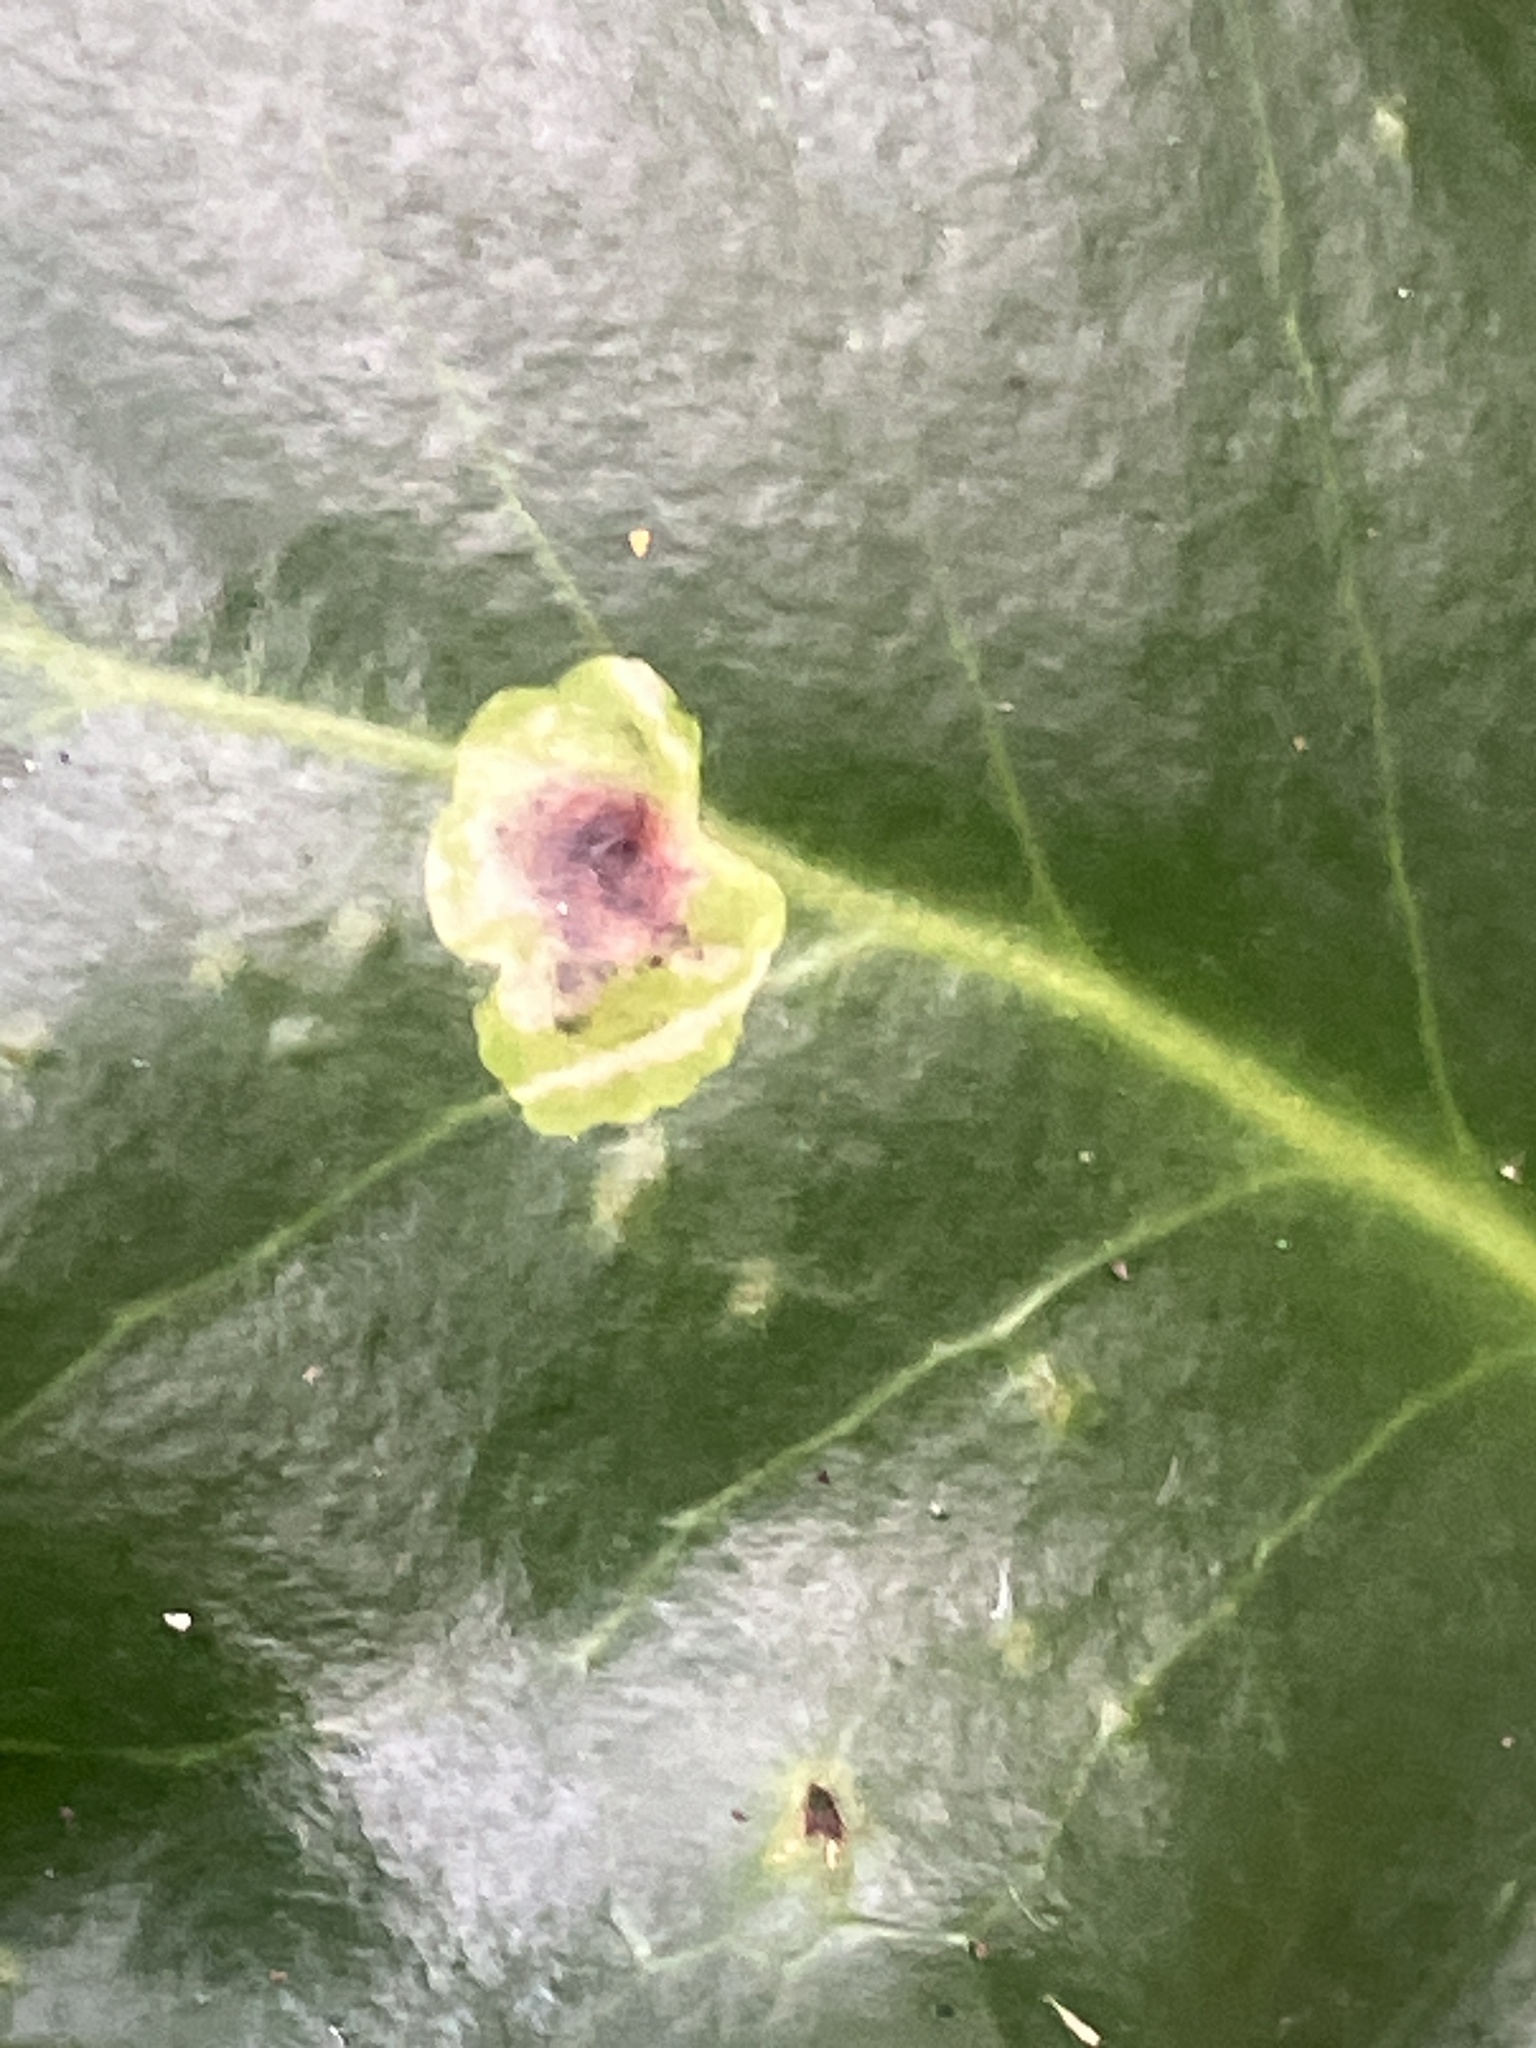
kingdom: Animalia
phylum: Arthropoda
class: Insecta
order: Diptera
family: Agromyzidae
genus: Phytomyza
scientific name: Phytomyza ilicis
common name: Holly leafminer
